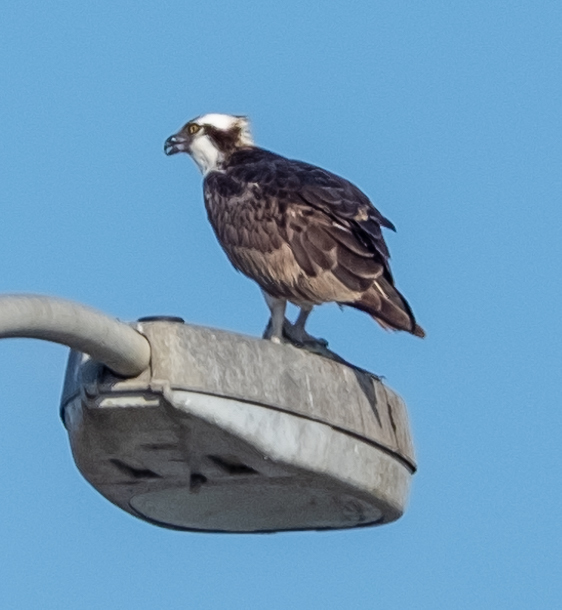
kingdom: Animalia
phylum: Chordata
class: Aves
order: Accipitriformes
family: Pandionidae
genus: Pandion
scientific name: Pandion haliaetus
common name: Osprey
